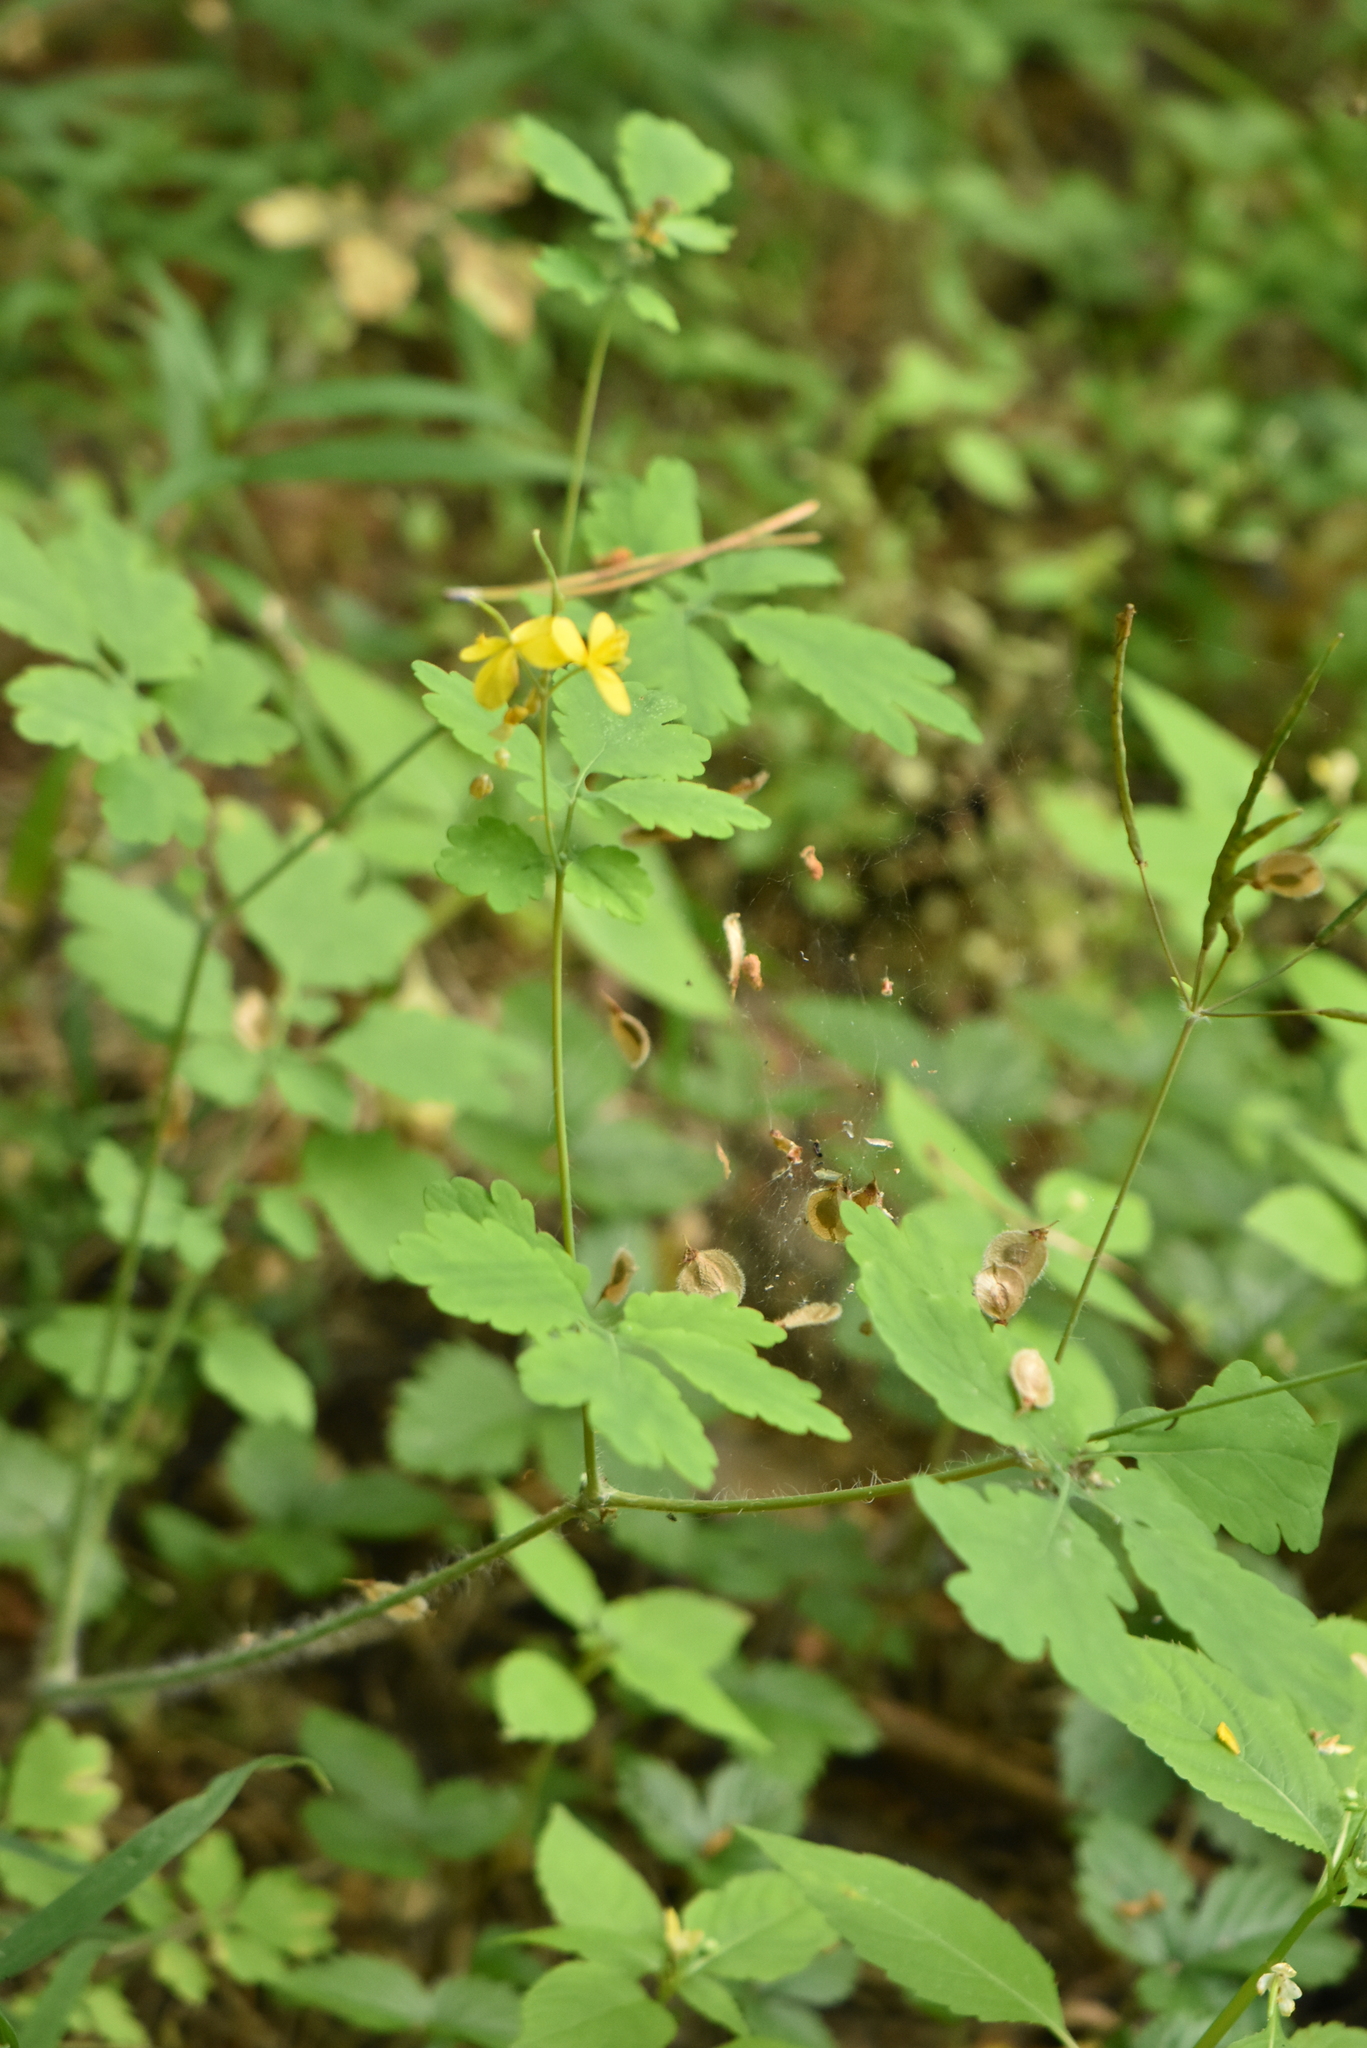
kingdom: Plantae
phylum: Tracheophyta
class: Magnoliopsida
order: Ranunculales
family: Papaveraceae
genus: Chelidonium
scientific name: Chelidonium majus
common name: Greater celandine
